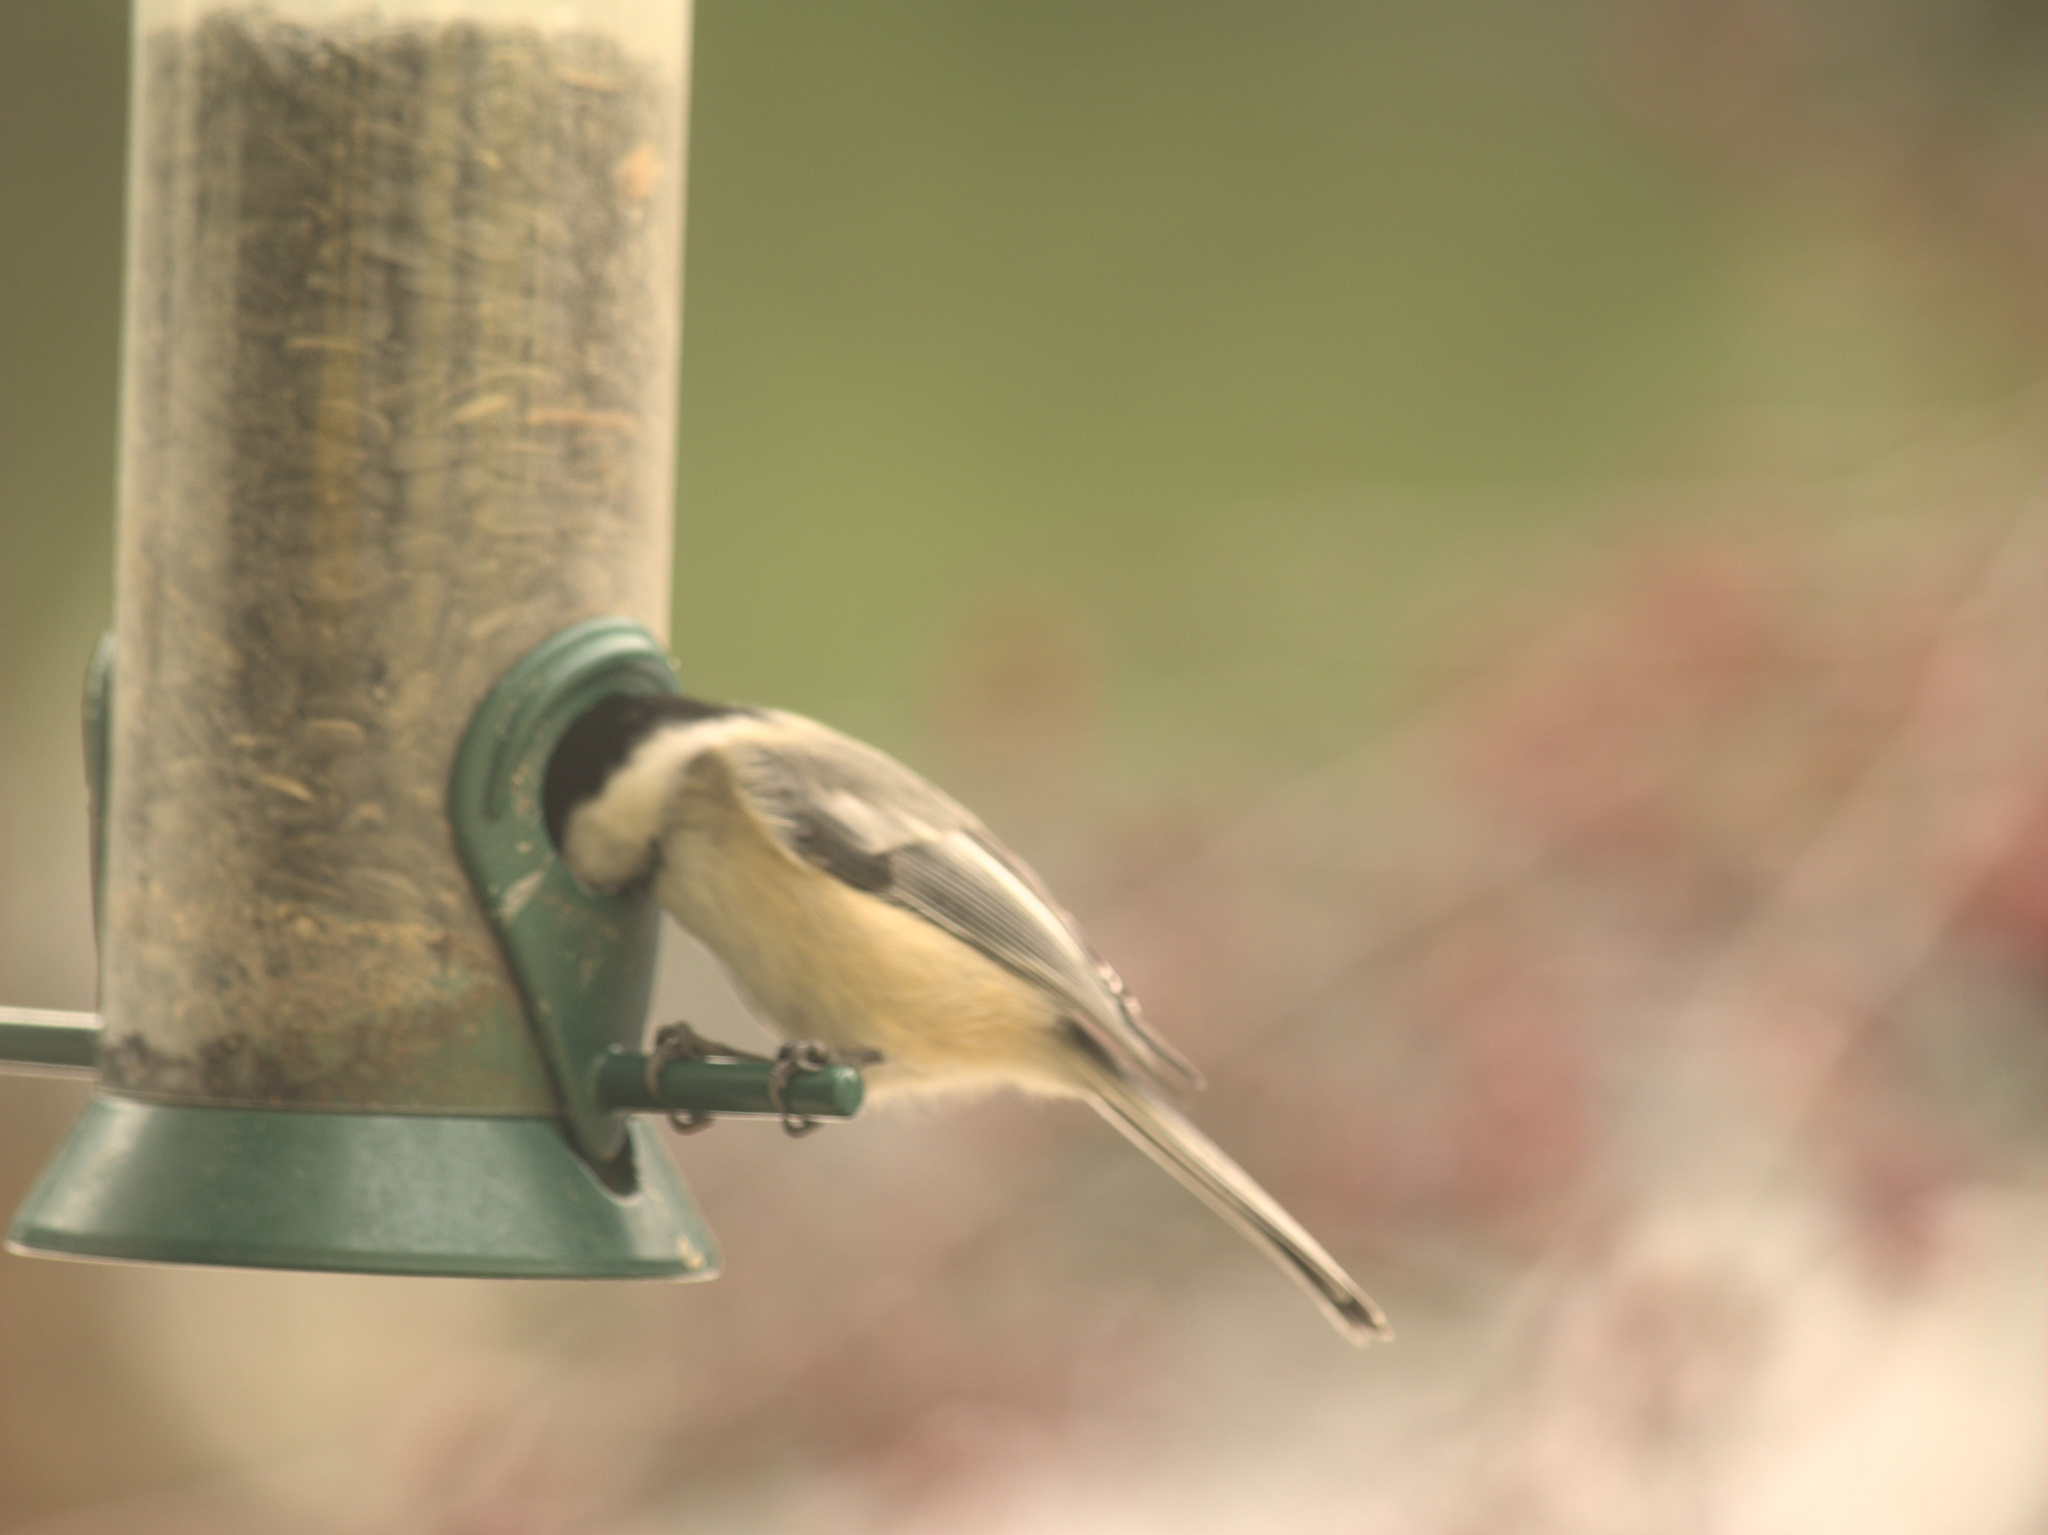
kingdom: Animalia
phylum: Chordata
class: Aves
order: Passeriformes
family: Paridae
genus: Poecile
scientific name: Poecile atricapillus
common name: Black-capped chickadee
